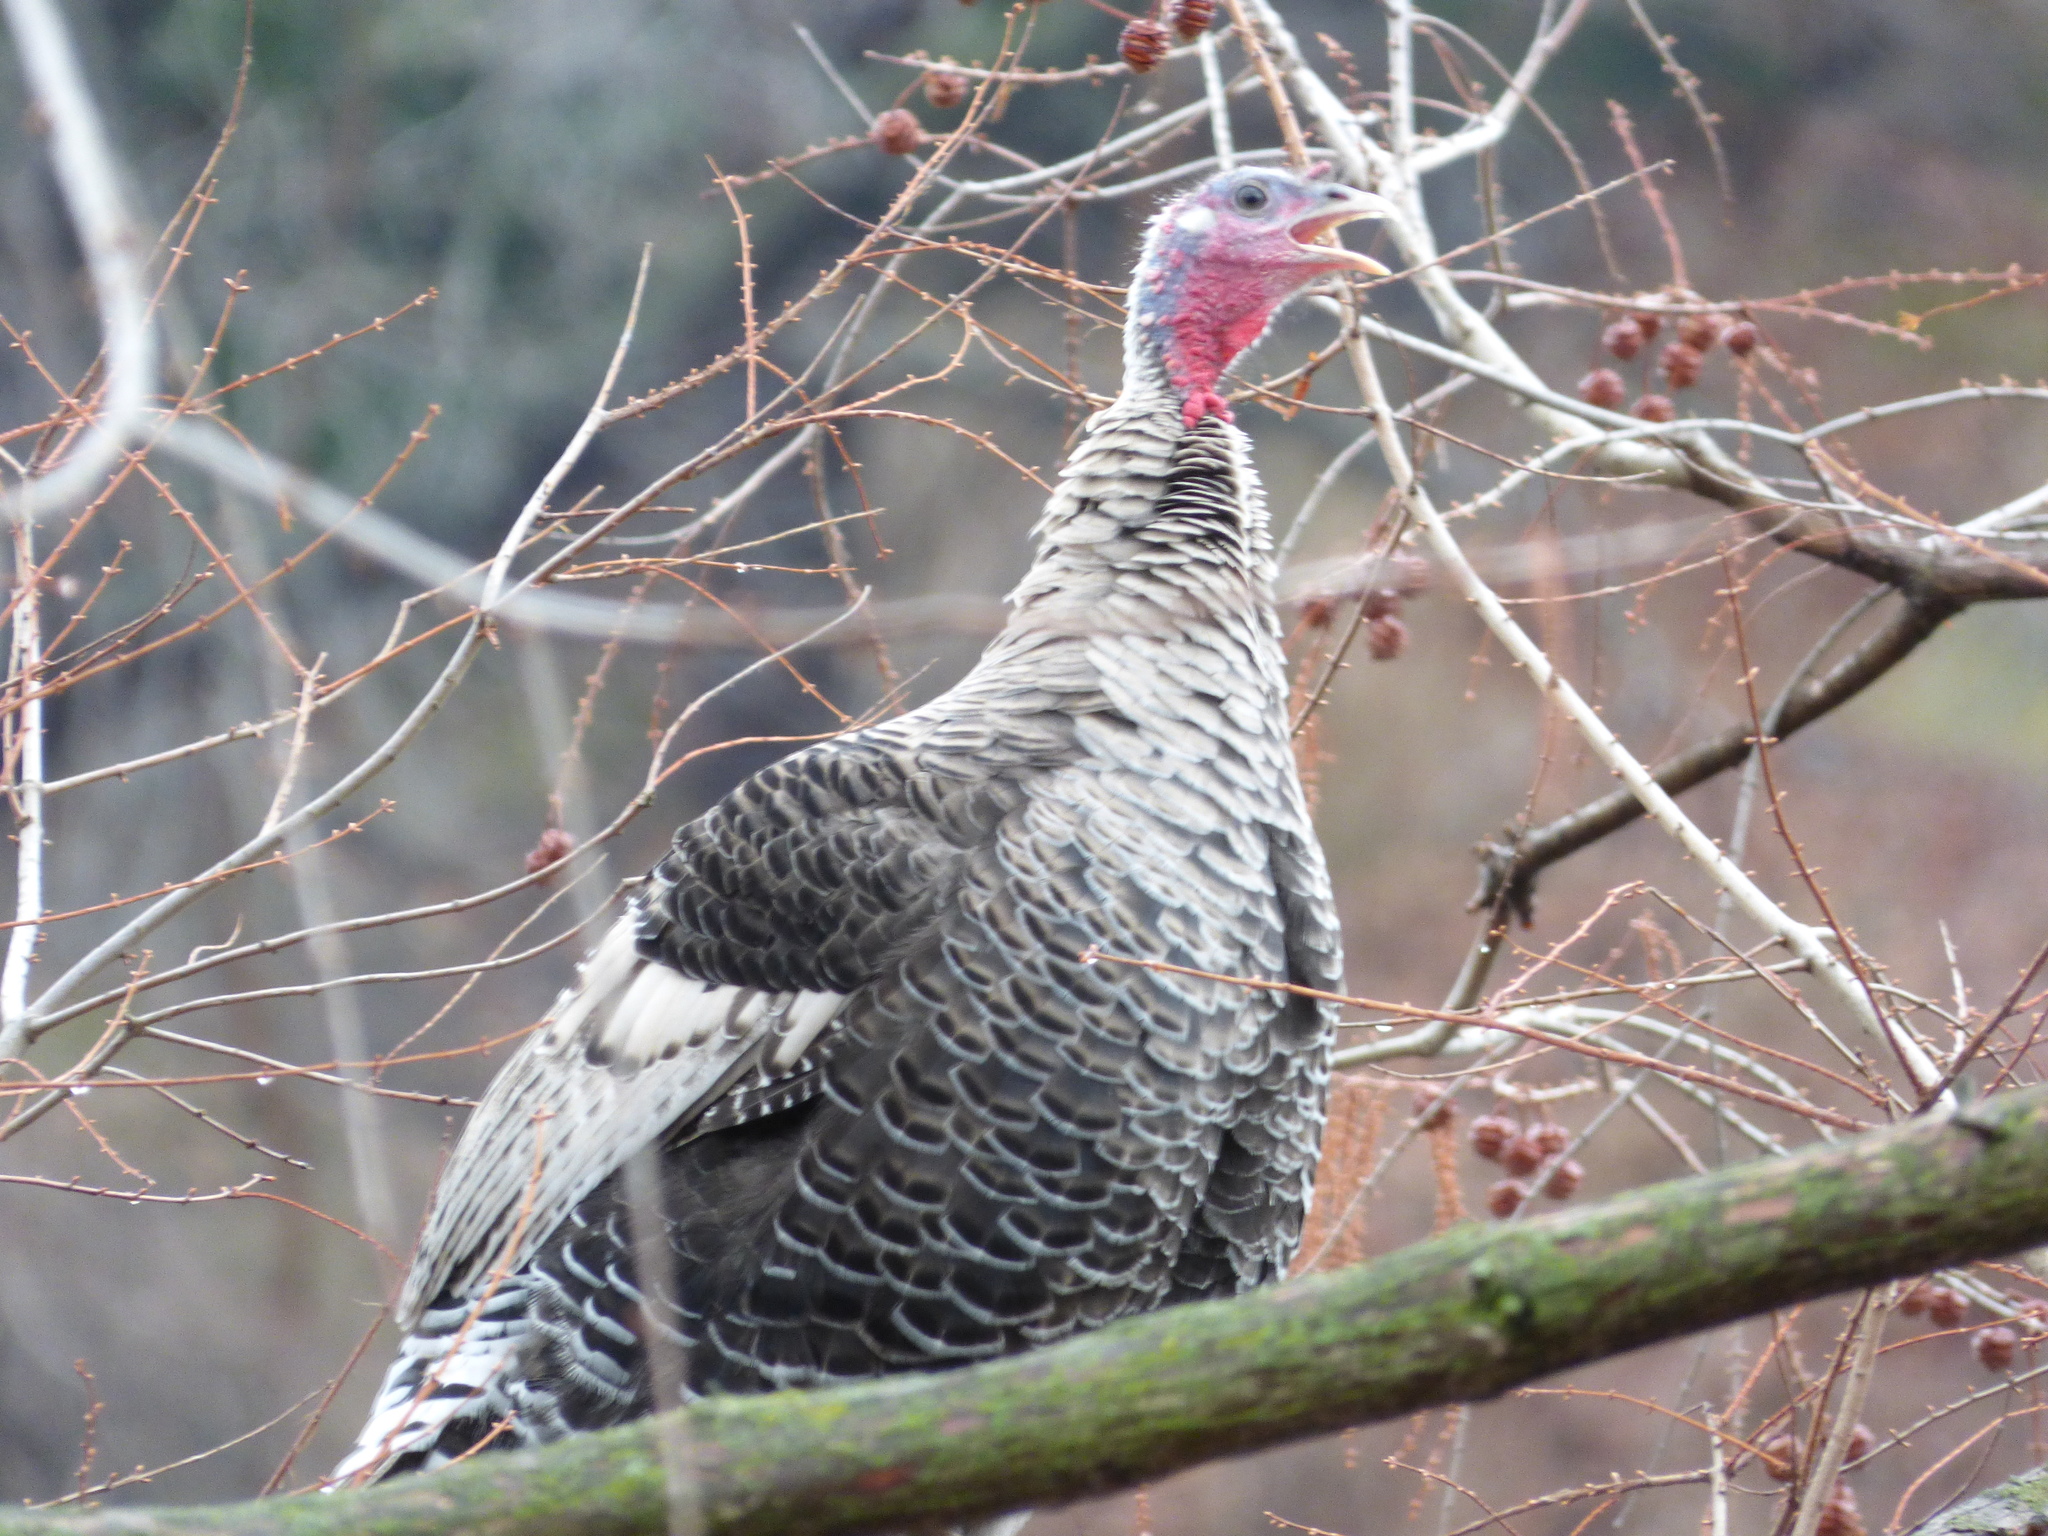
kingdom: Animalia
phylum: Chordata
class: Aves
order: Galliformes
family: Phasianidae
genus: Meleagris
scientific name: Meleagris gallopavo
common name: Wild turkey
